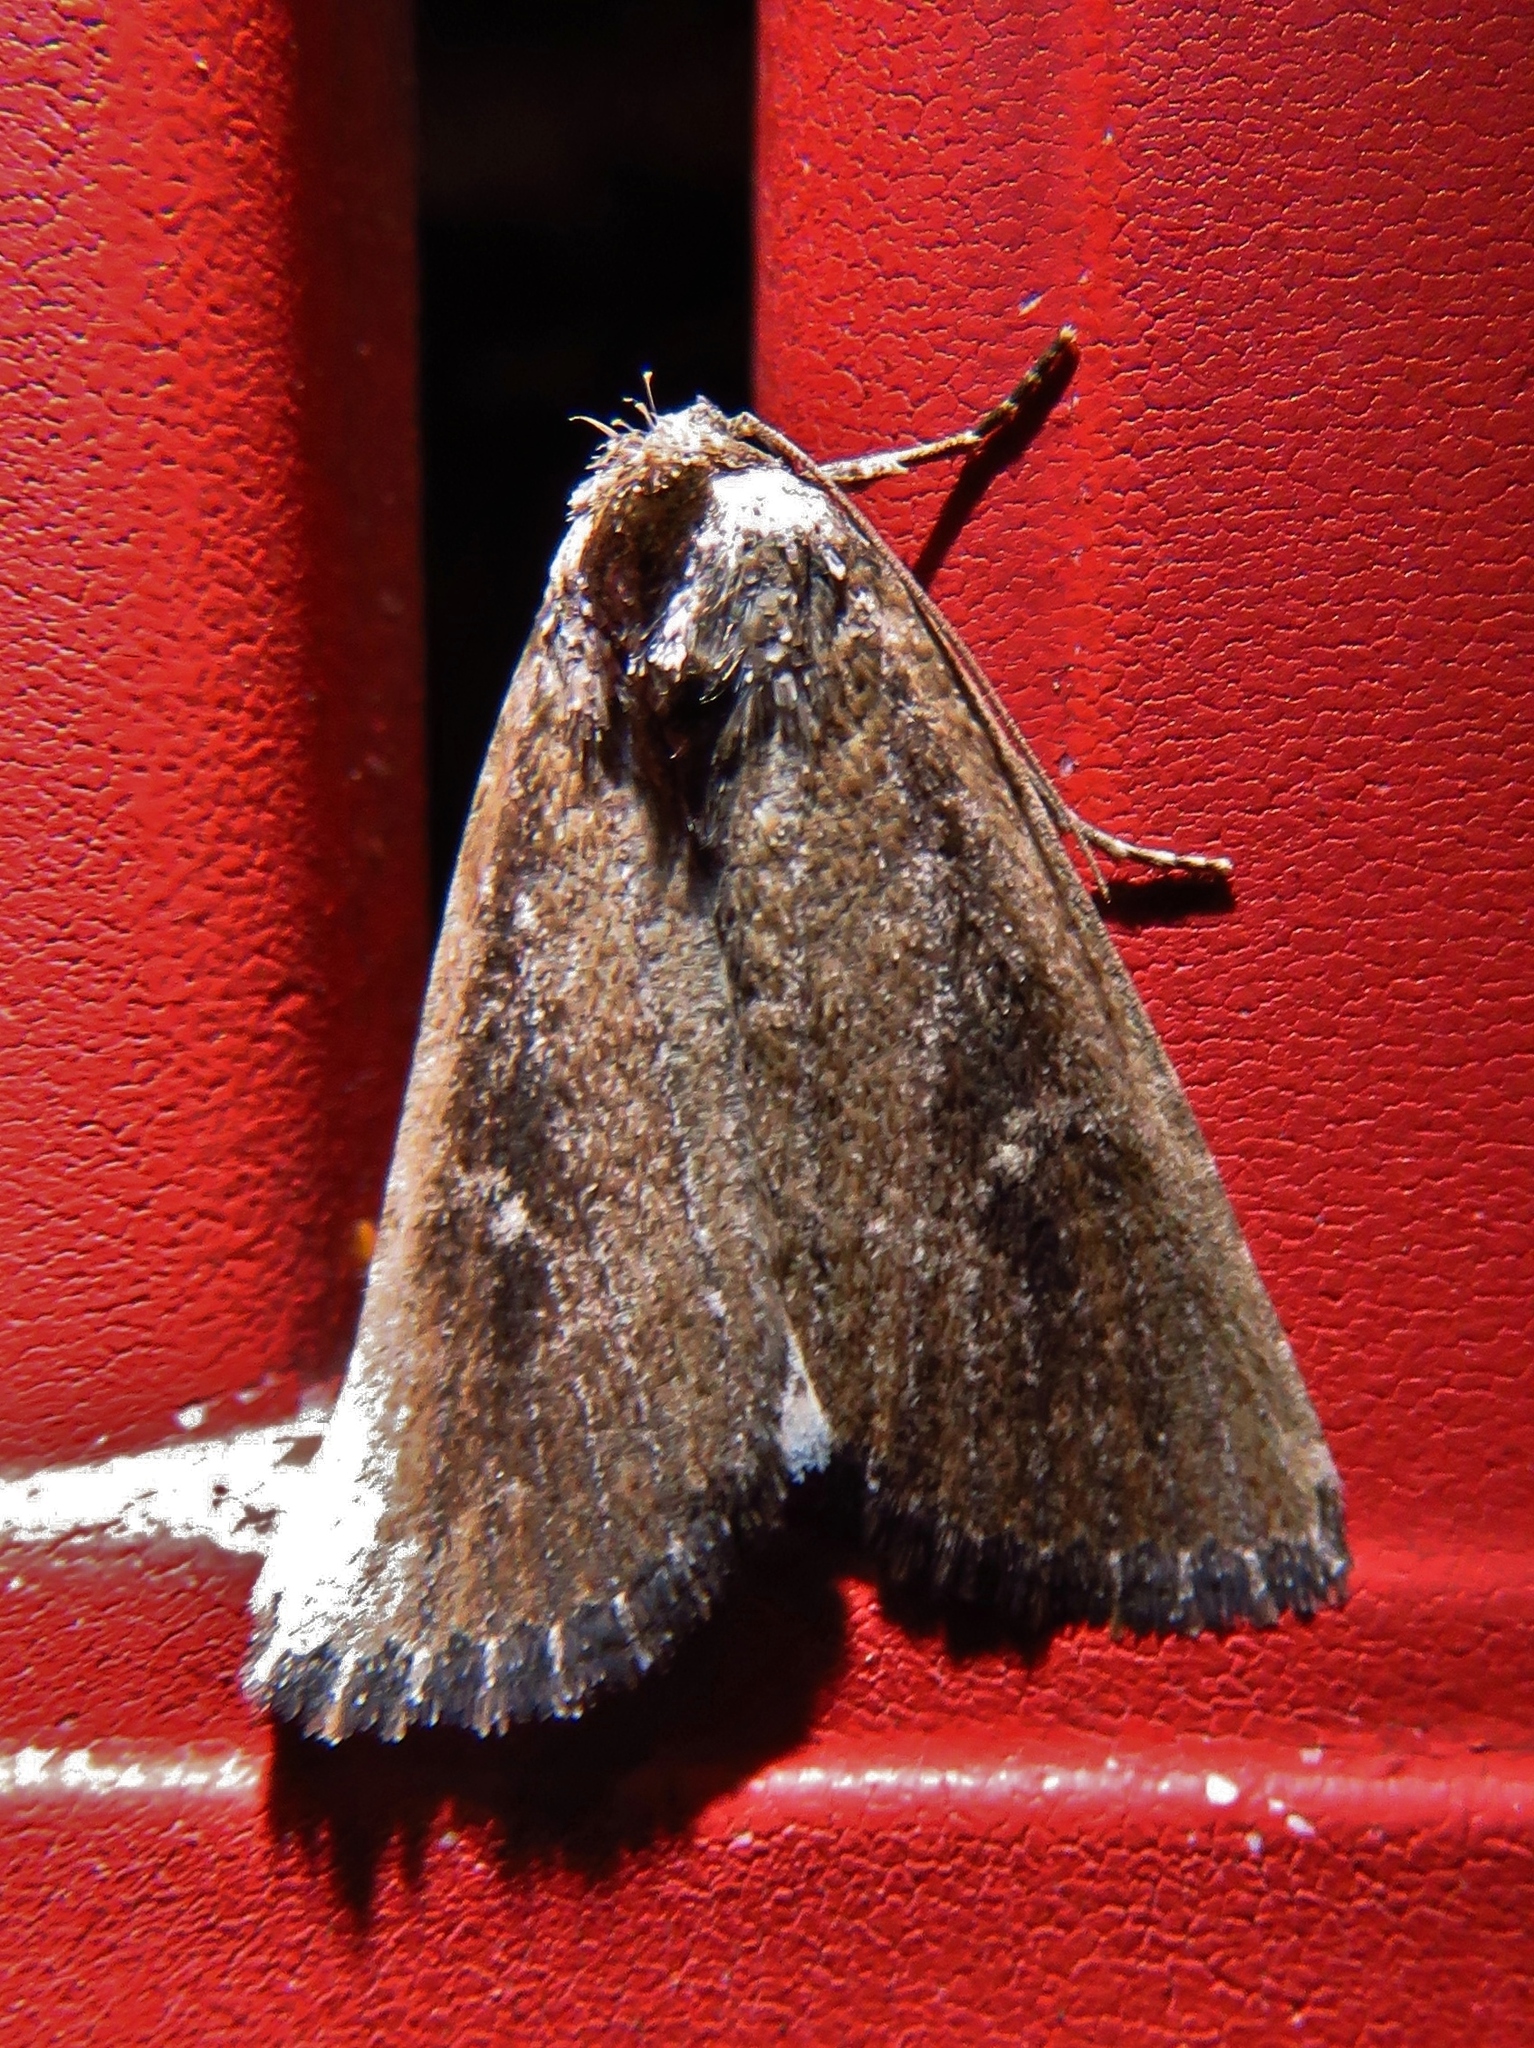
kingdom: Animalia
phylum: Arthropoda
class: Insecta
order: Lepidoptera
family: Noctuidae
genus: Condica
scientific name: Condica videns
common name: White-dotted groundling
